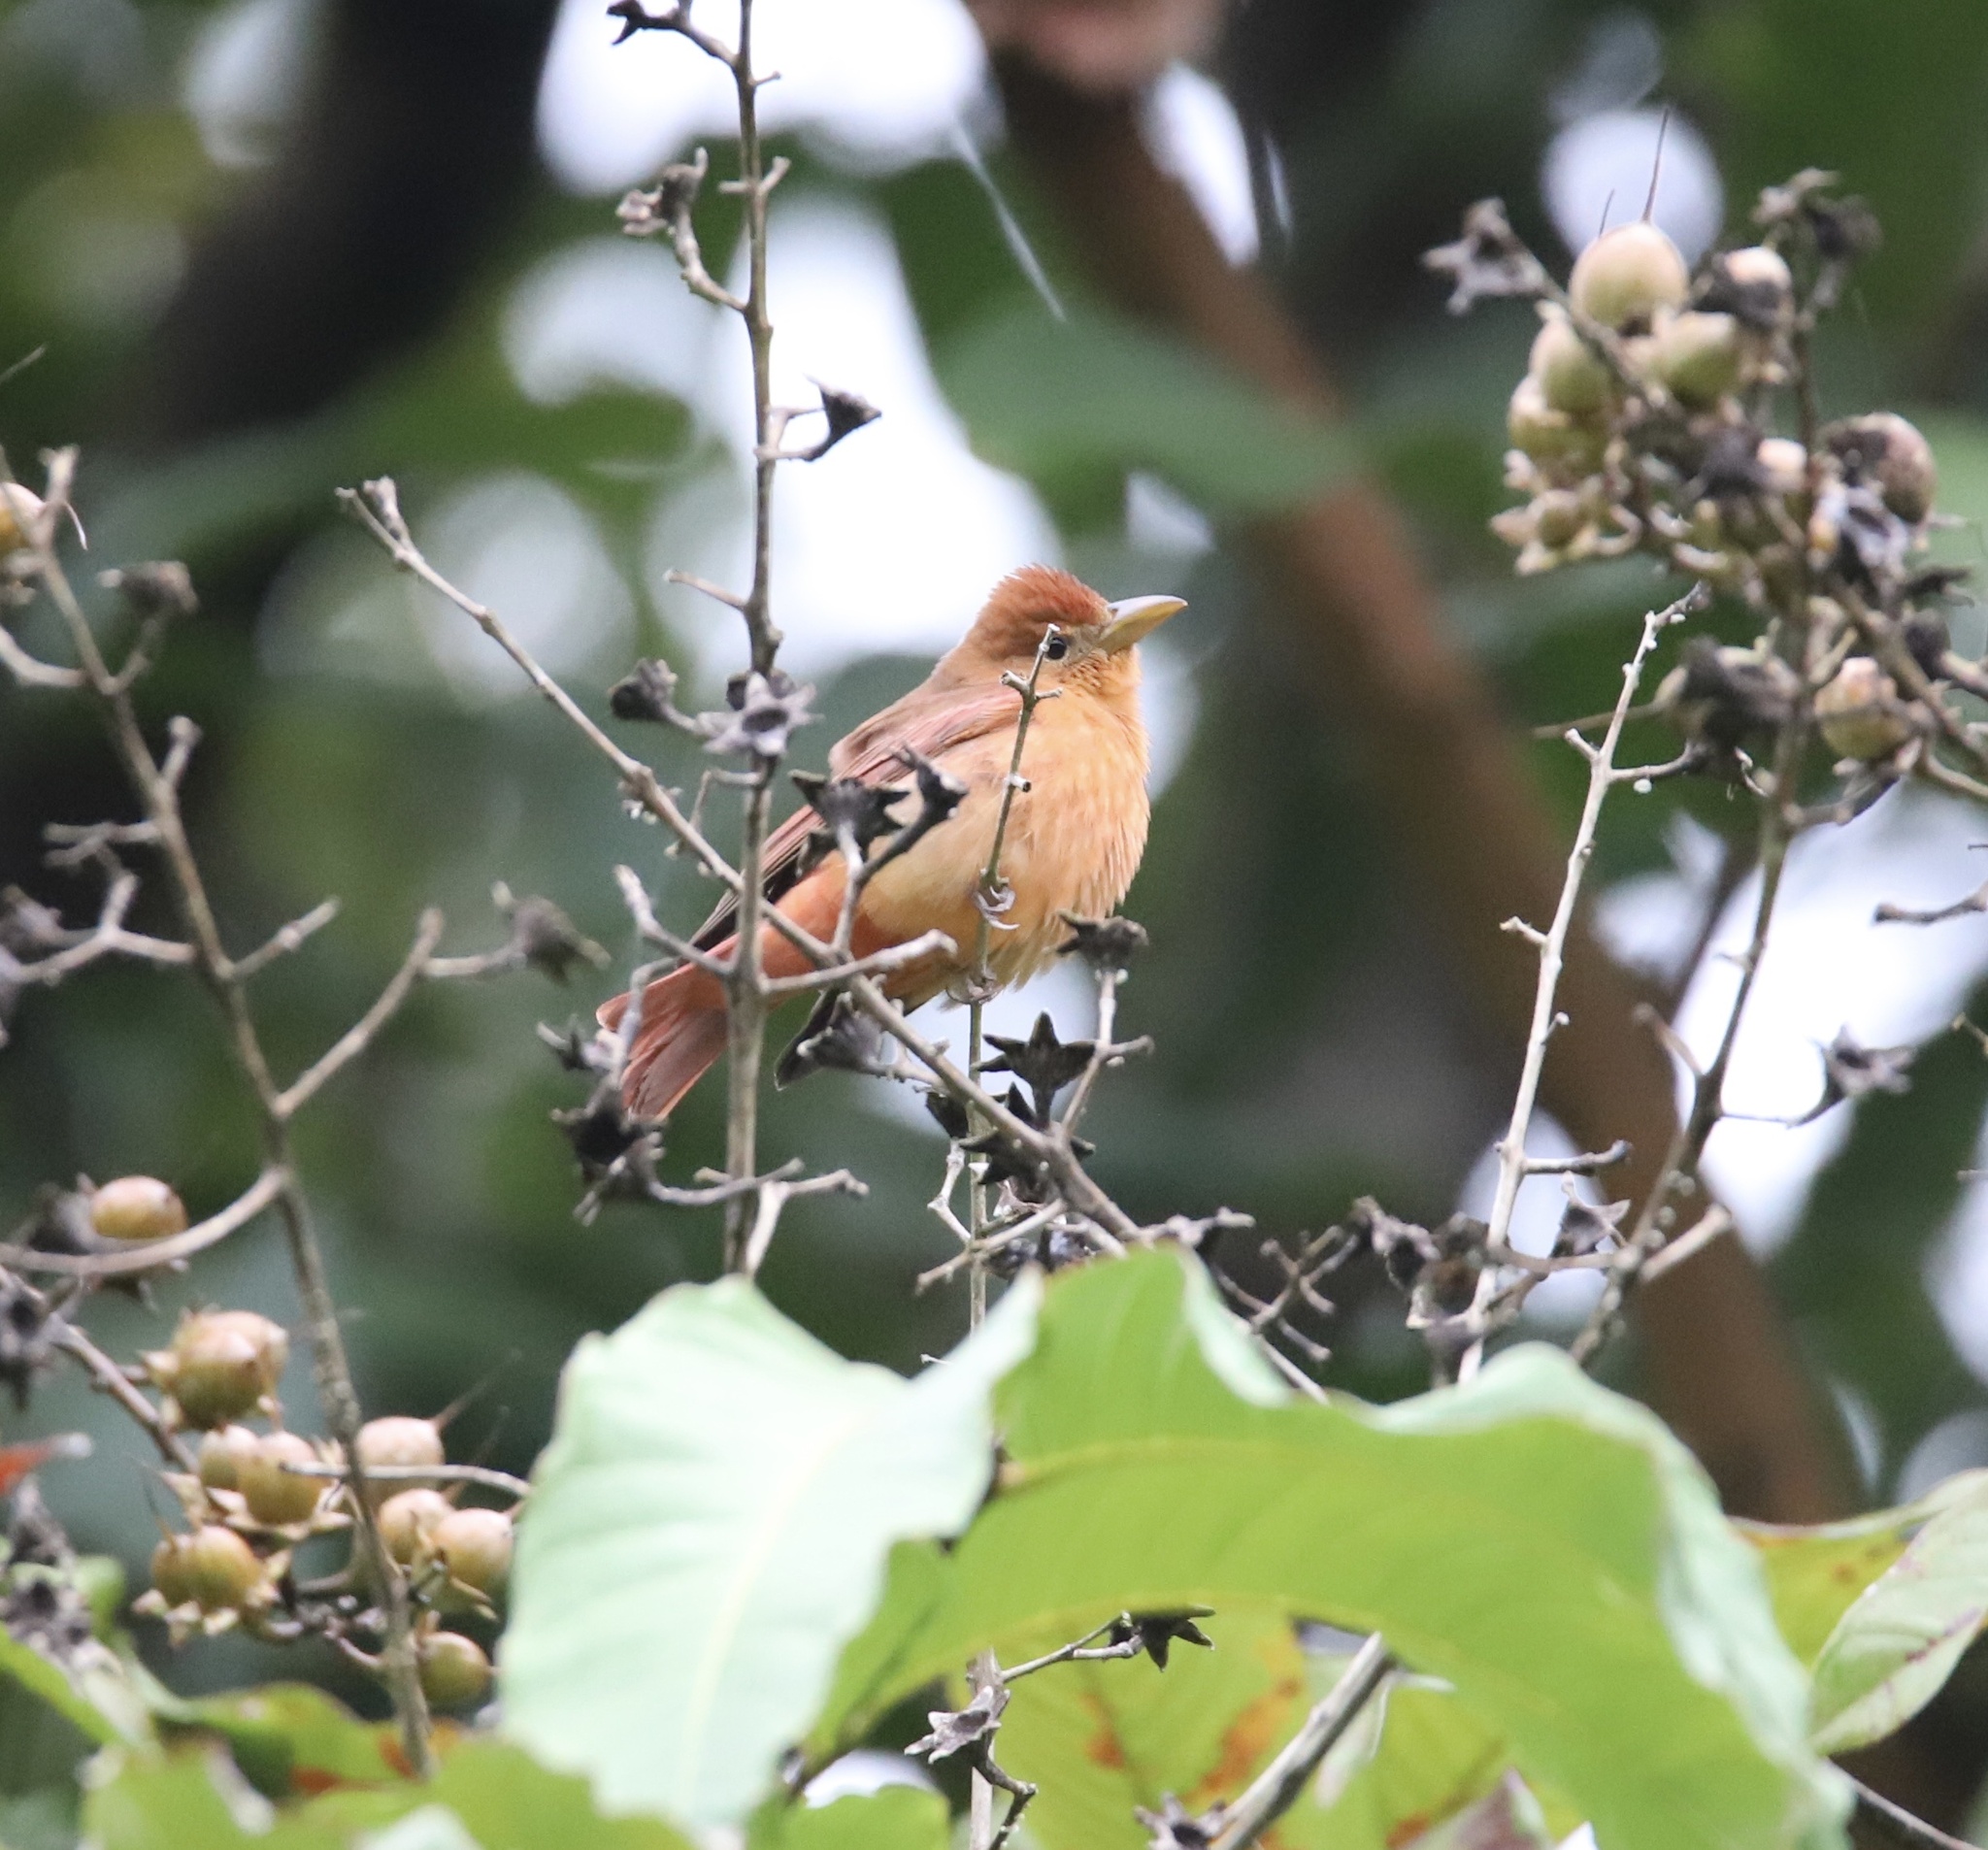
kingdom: Animalia
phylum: Chordata
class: Aves
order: Passeriformes
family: Cardinalidae
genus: Piranga
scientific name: Piranga rubra
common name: Summer tanager
